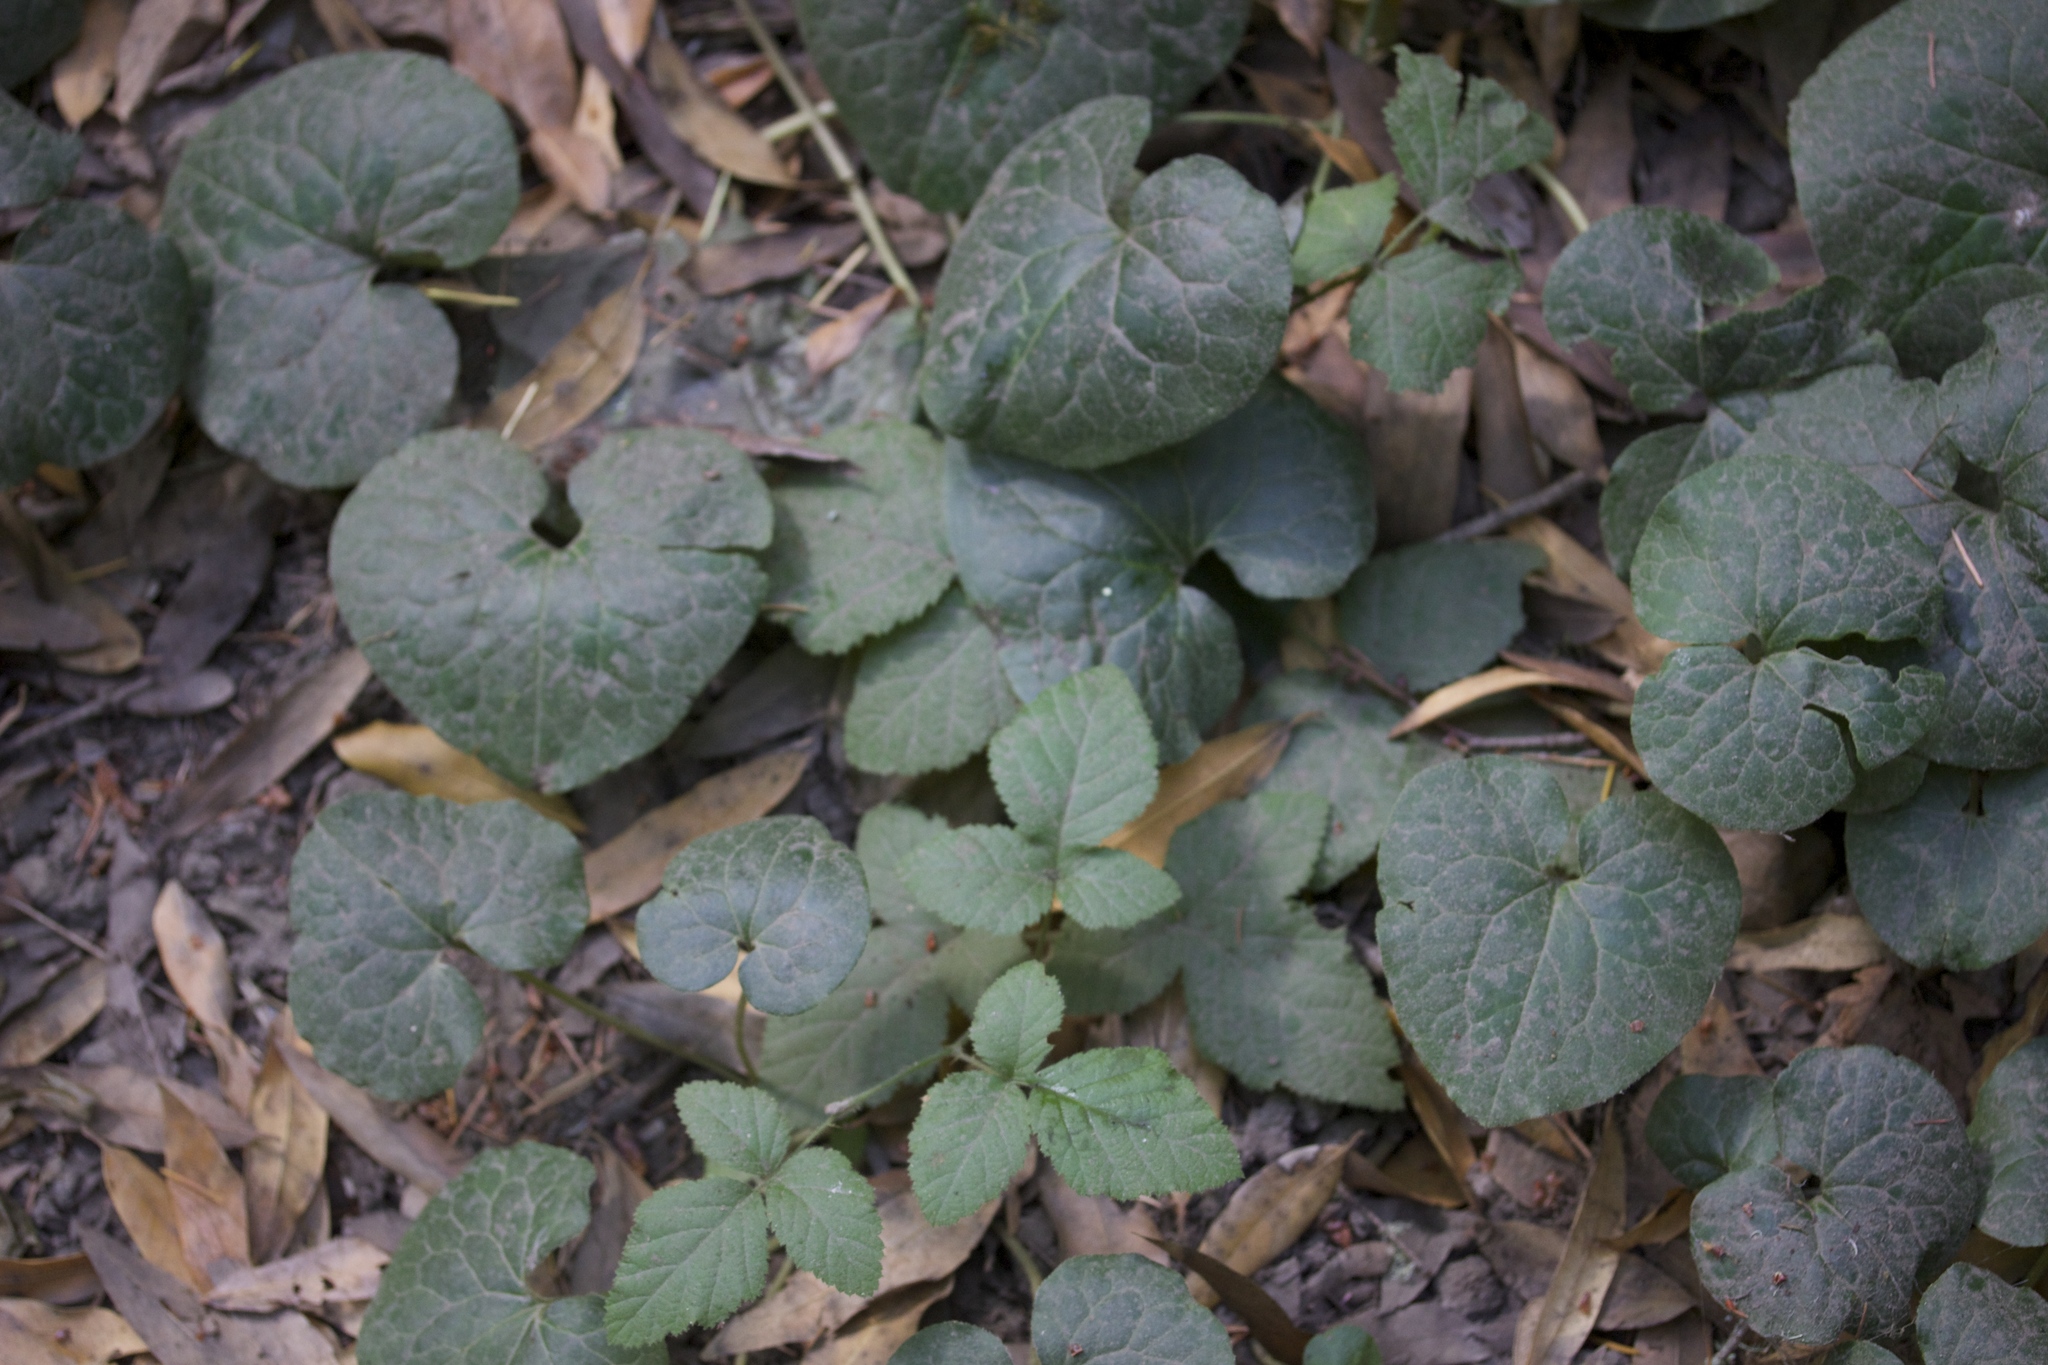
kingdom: Plantae
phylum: Tracheophyta
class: Magnoliopsida
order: Piperales
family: Aristolochiaceae
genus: Asarum
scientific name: Asarum caudatum
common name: Wild ginger
